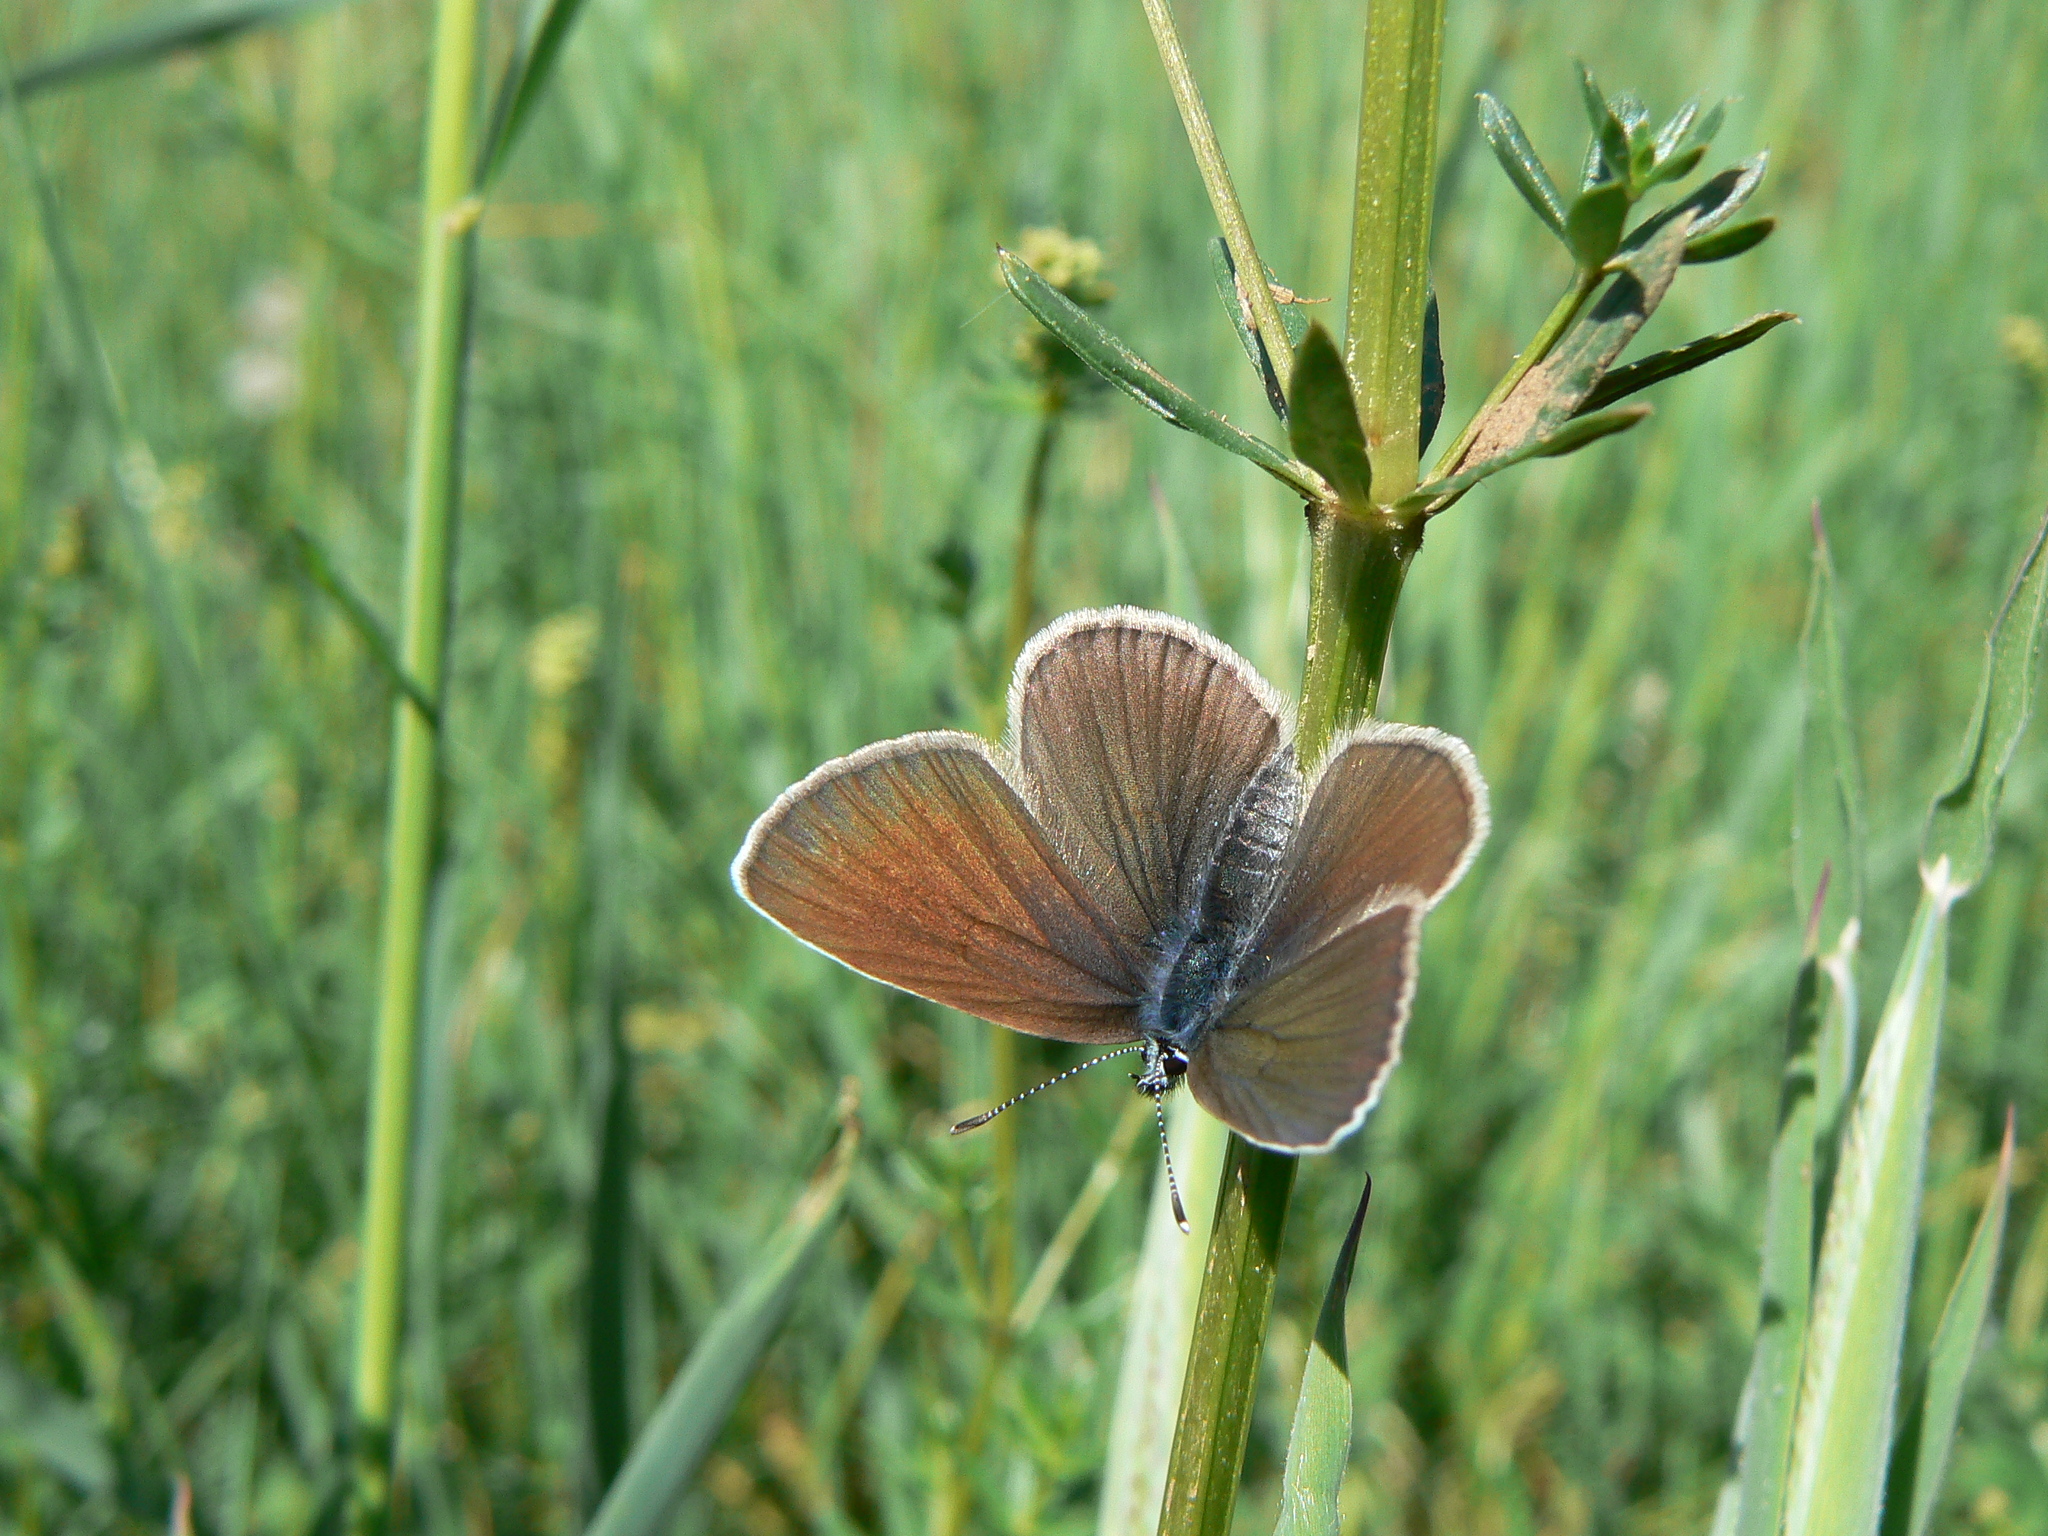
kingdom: Animalia
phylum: Arthropoda
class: Insecta
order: Lepidoptera
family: Lycaenidae
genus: Cyaniris
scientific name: Cyaniris semiargus
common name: Mazarine blue
